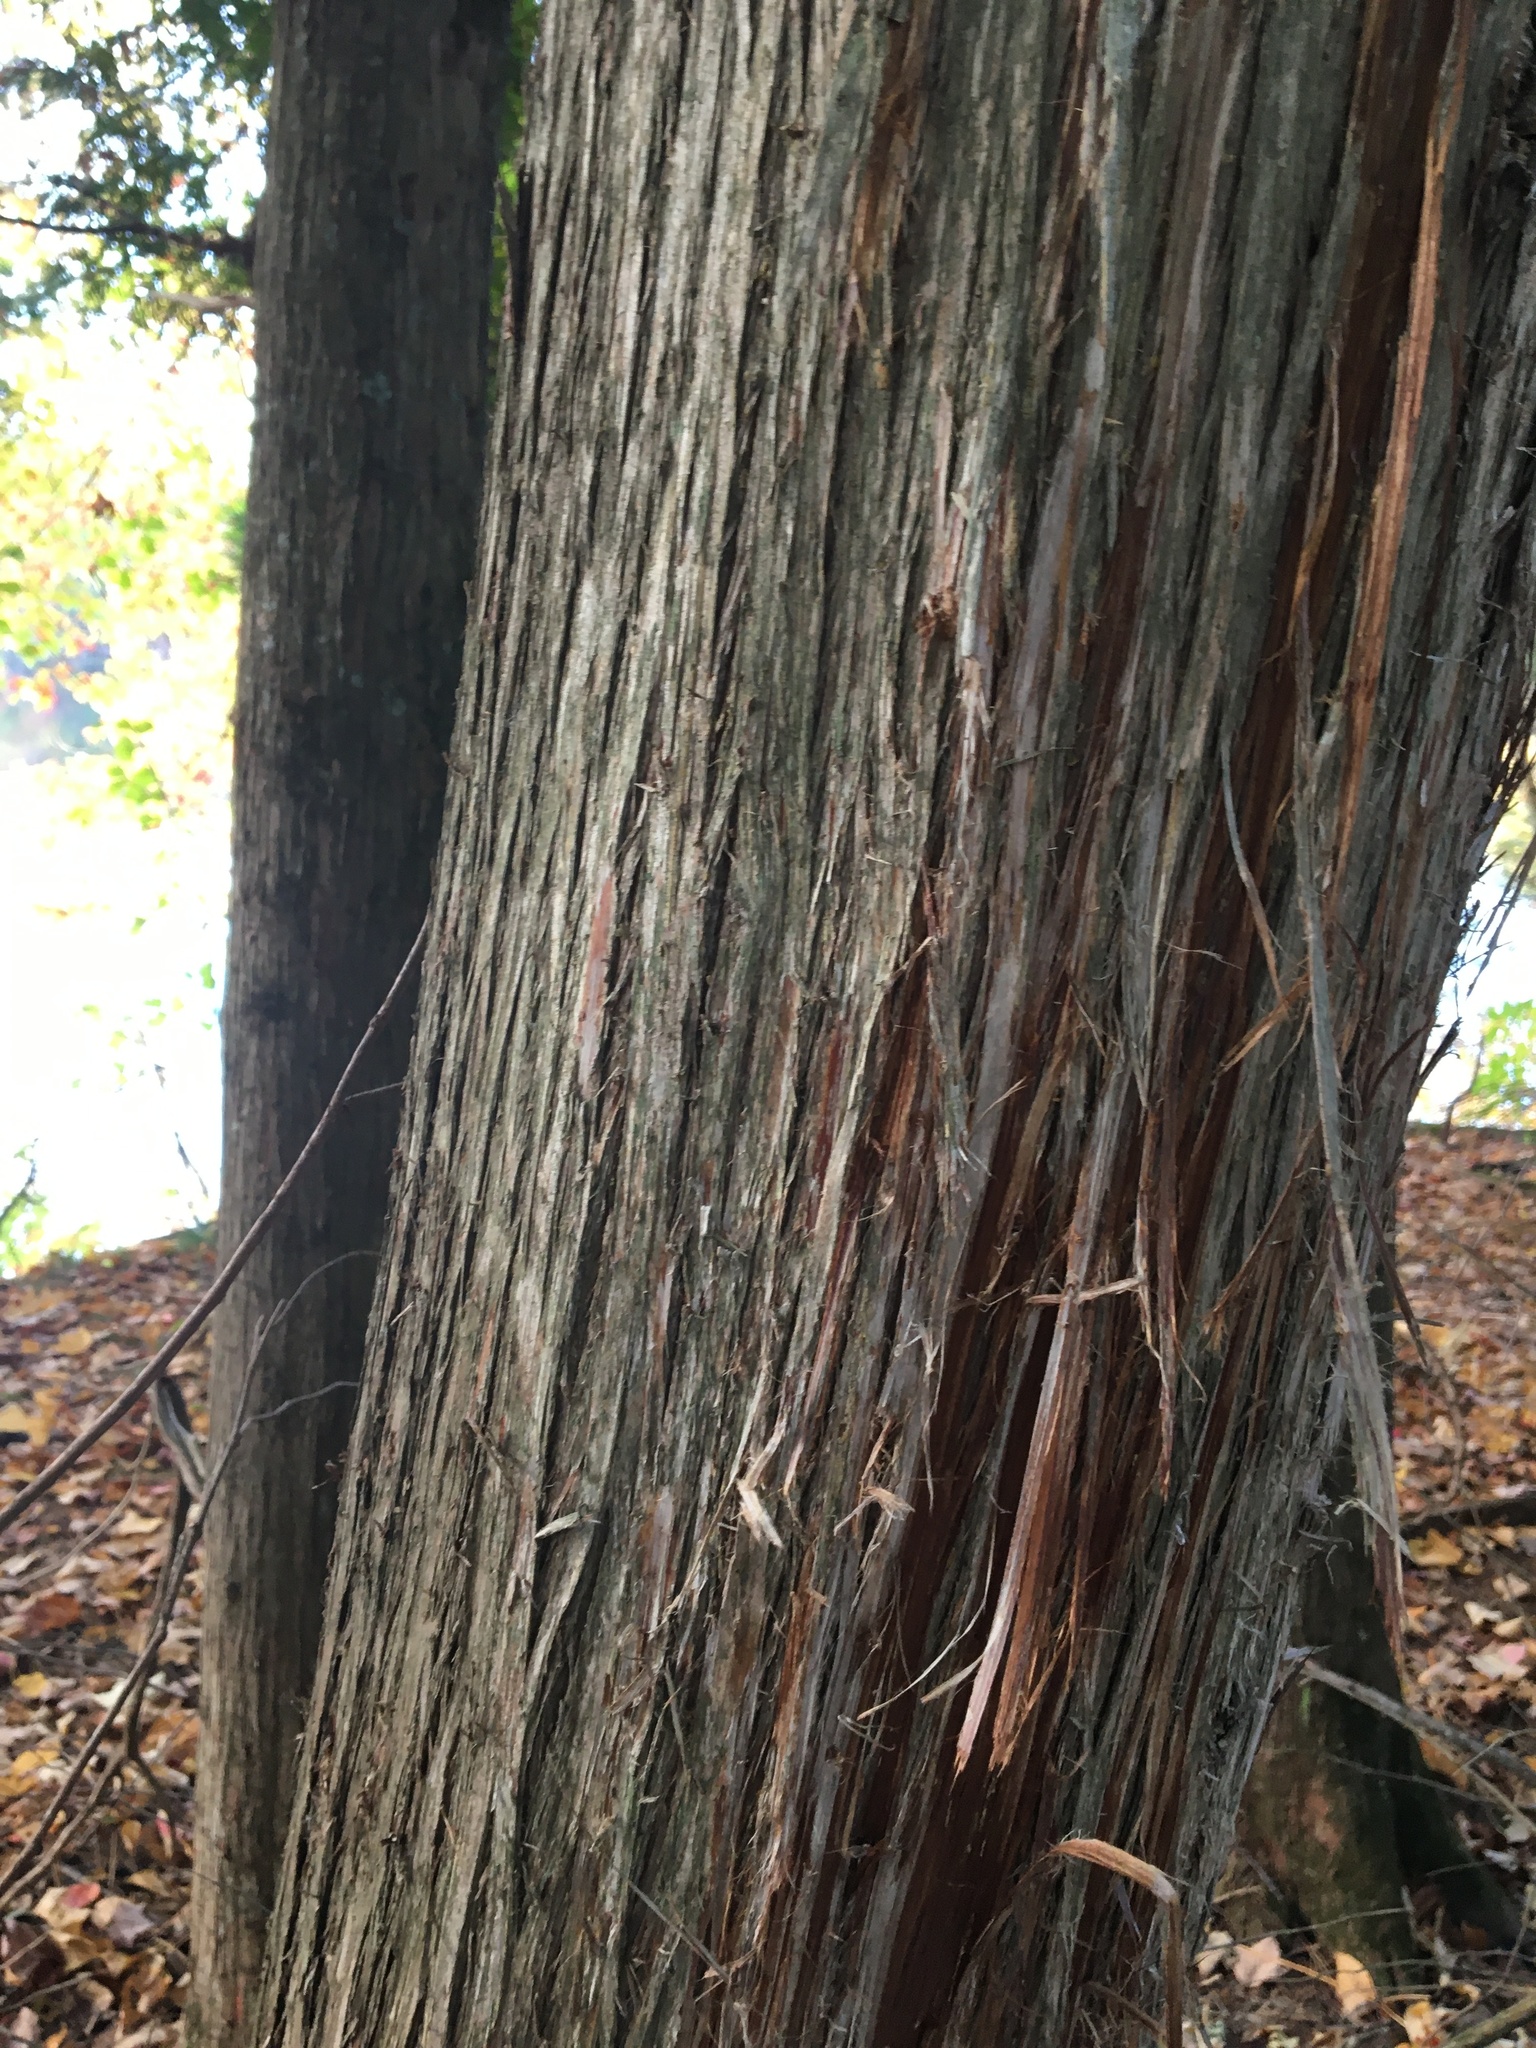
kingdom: Plantae
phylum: Tracheophyta
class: Pinopsida
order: Pinales
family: Cupressaceae
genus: Thuja
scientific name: Thuja occidentalis
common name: Northern white-cedar
